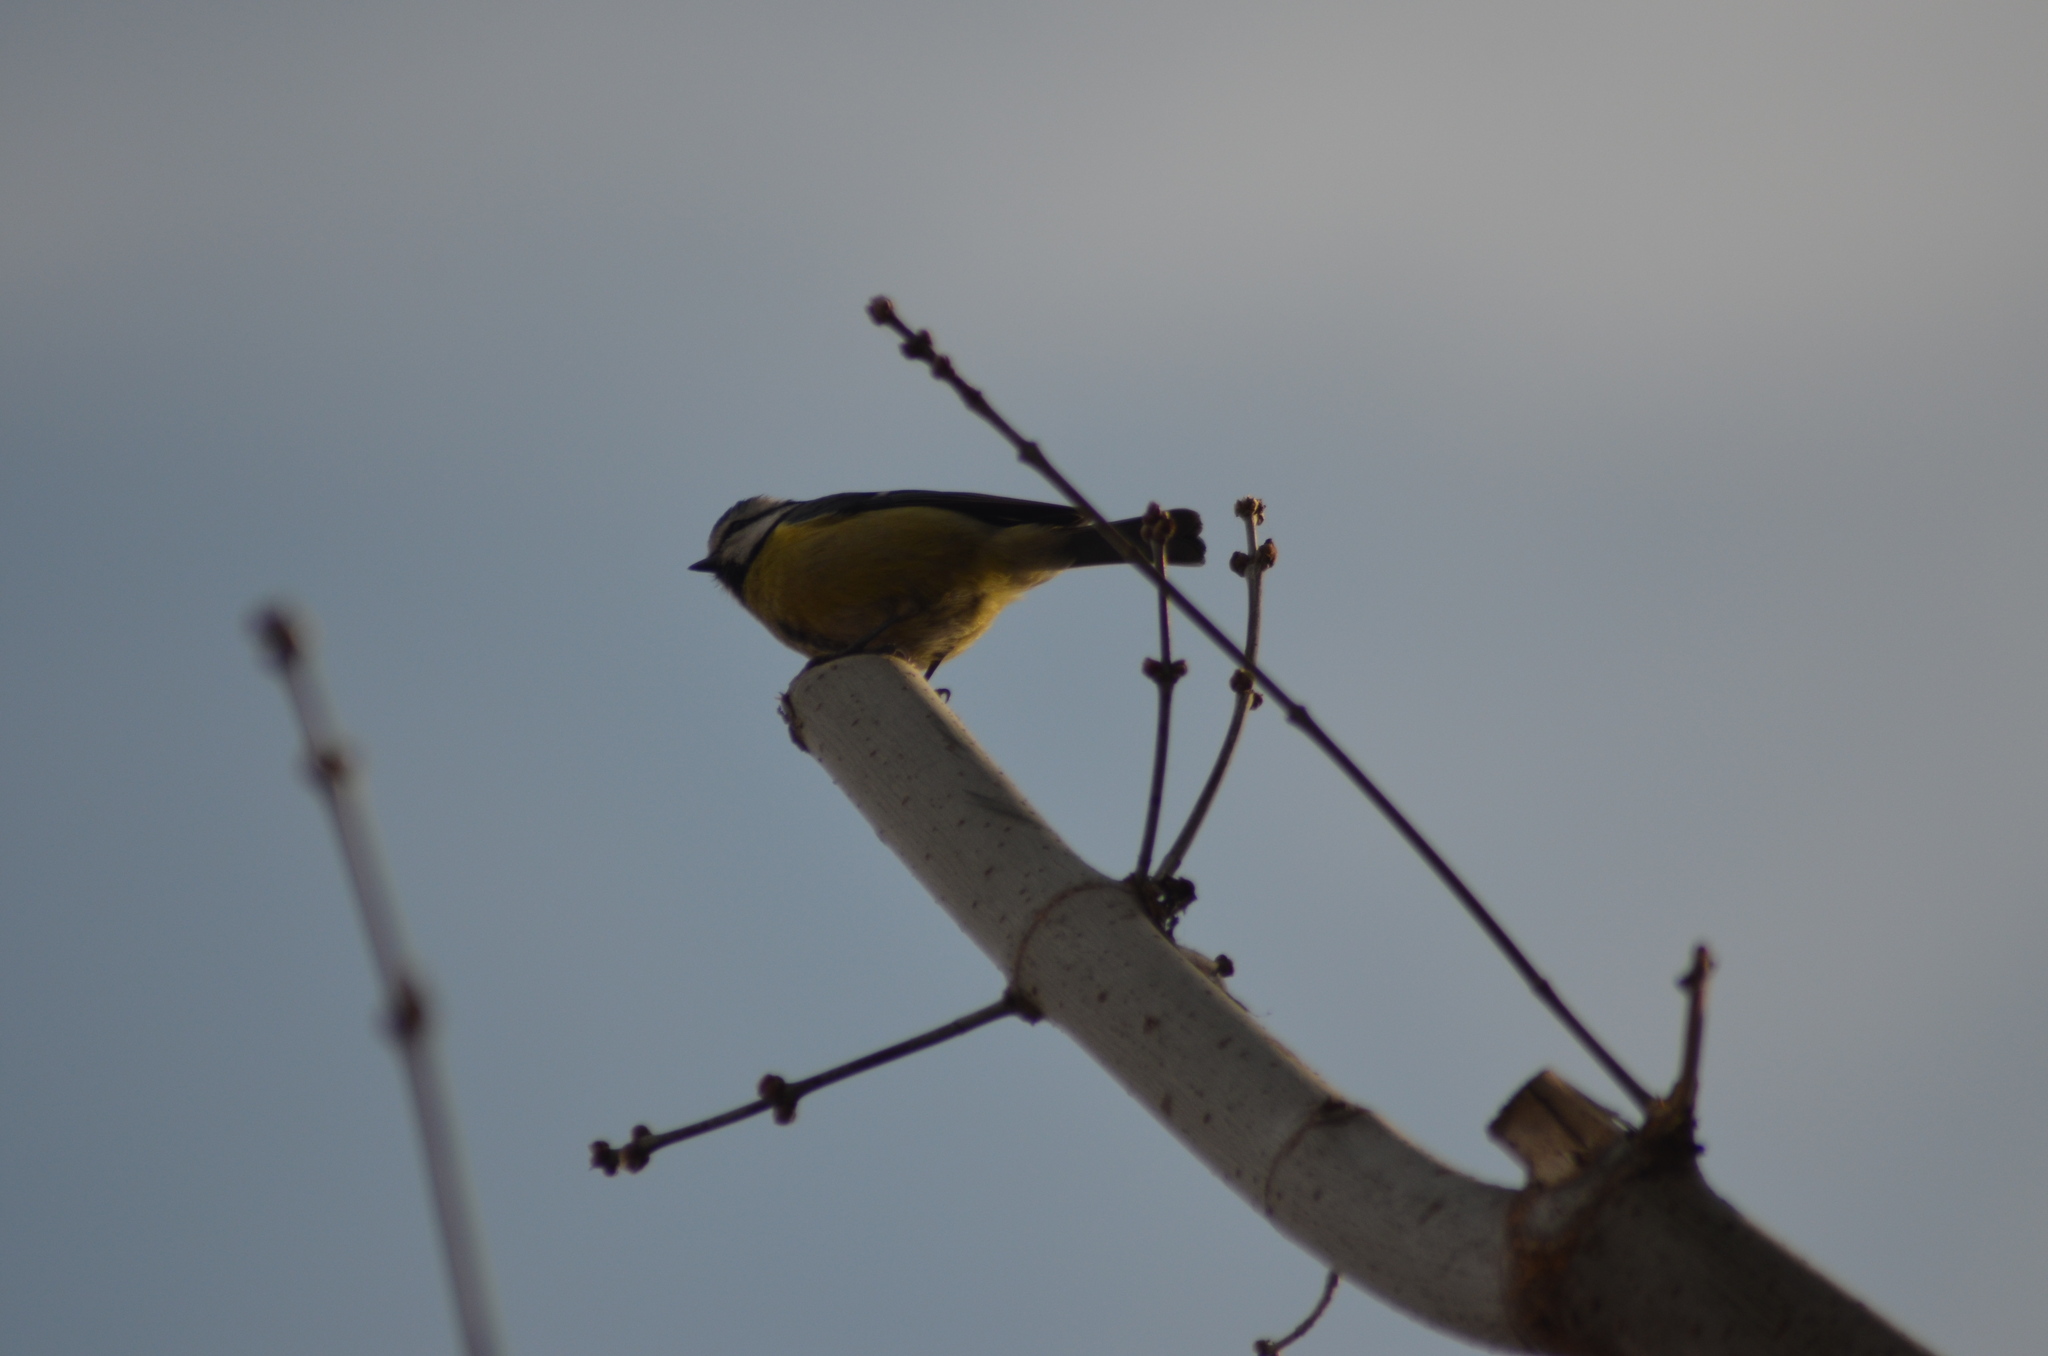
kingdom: Animalia
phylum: Chordata
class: Aves
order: Passeriformes
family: Paridae
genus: Cyanistes
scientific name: Cyanistes caeruleus
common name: Eurasian blue tit
